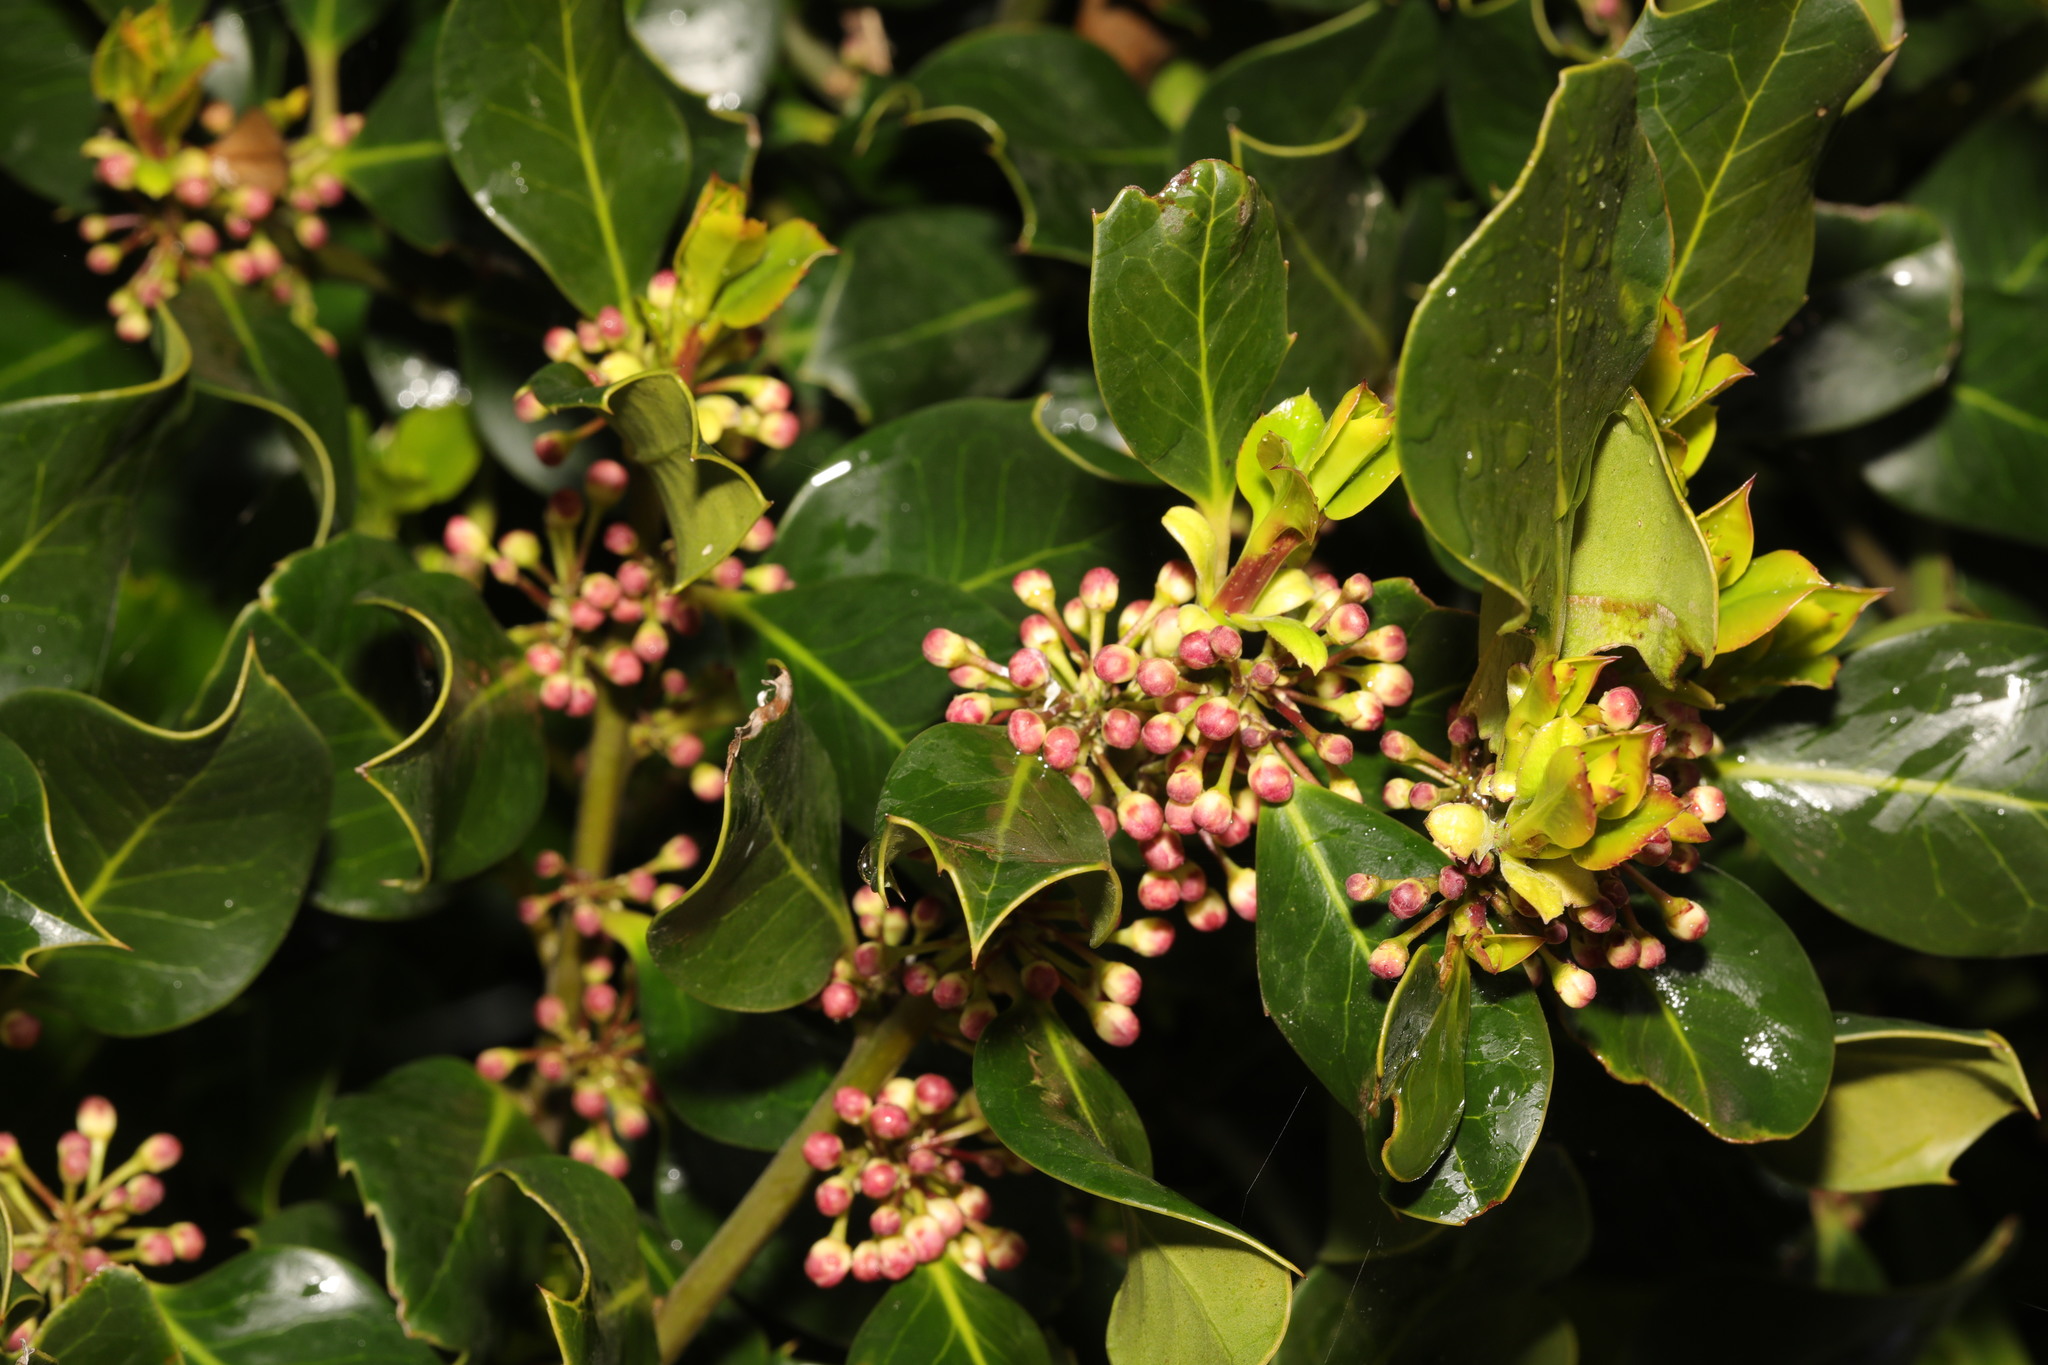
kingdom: Plantae
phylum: Tracheophyta
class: Magnoliopsida
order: Aquifoliales
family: Aquifoliaceae
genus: Ilex
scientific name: Ilex aquifolium
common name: English holly
